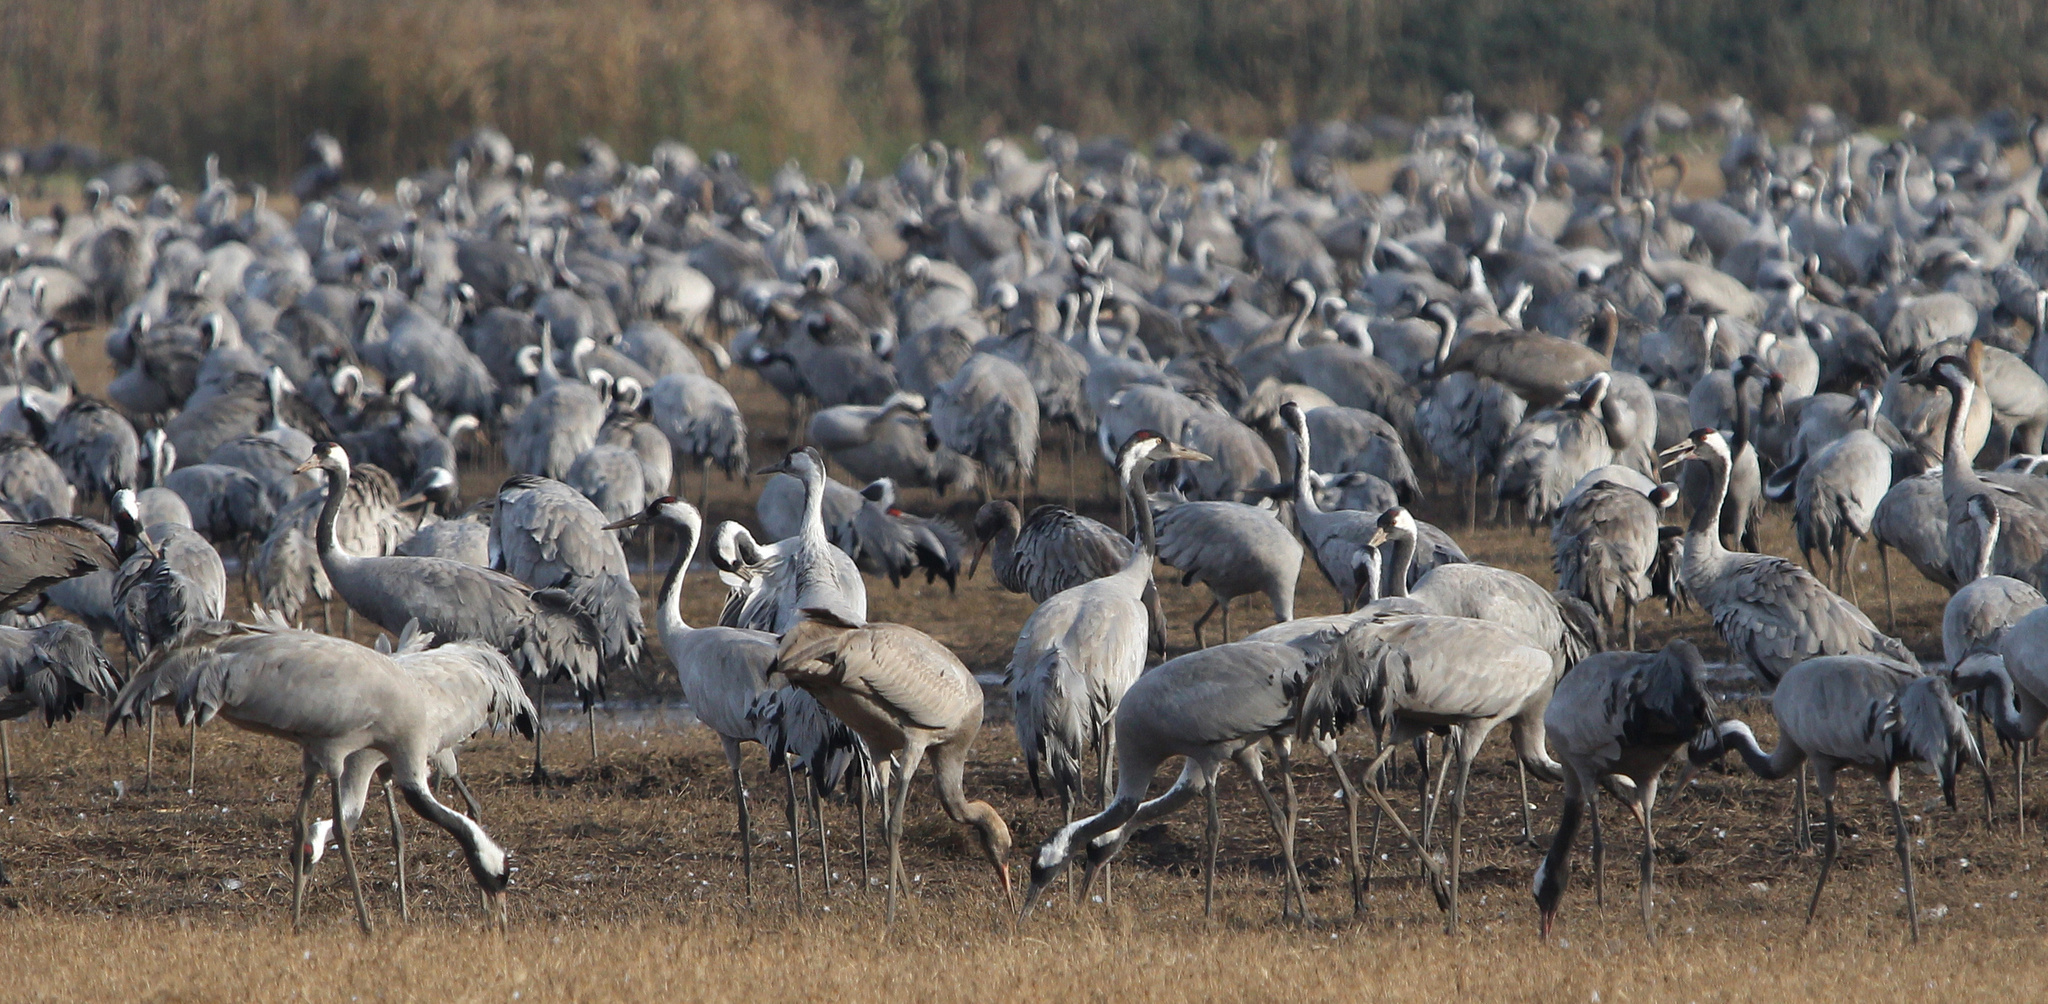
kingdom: Animalia
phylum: Chordata
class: Aves
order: Gruiformes
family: Gruidae
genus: Grus
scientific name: Grus grus
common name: Common crane
